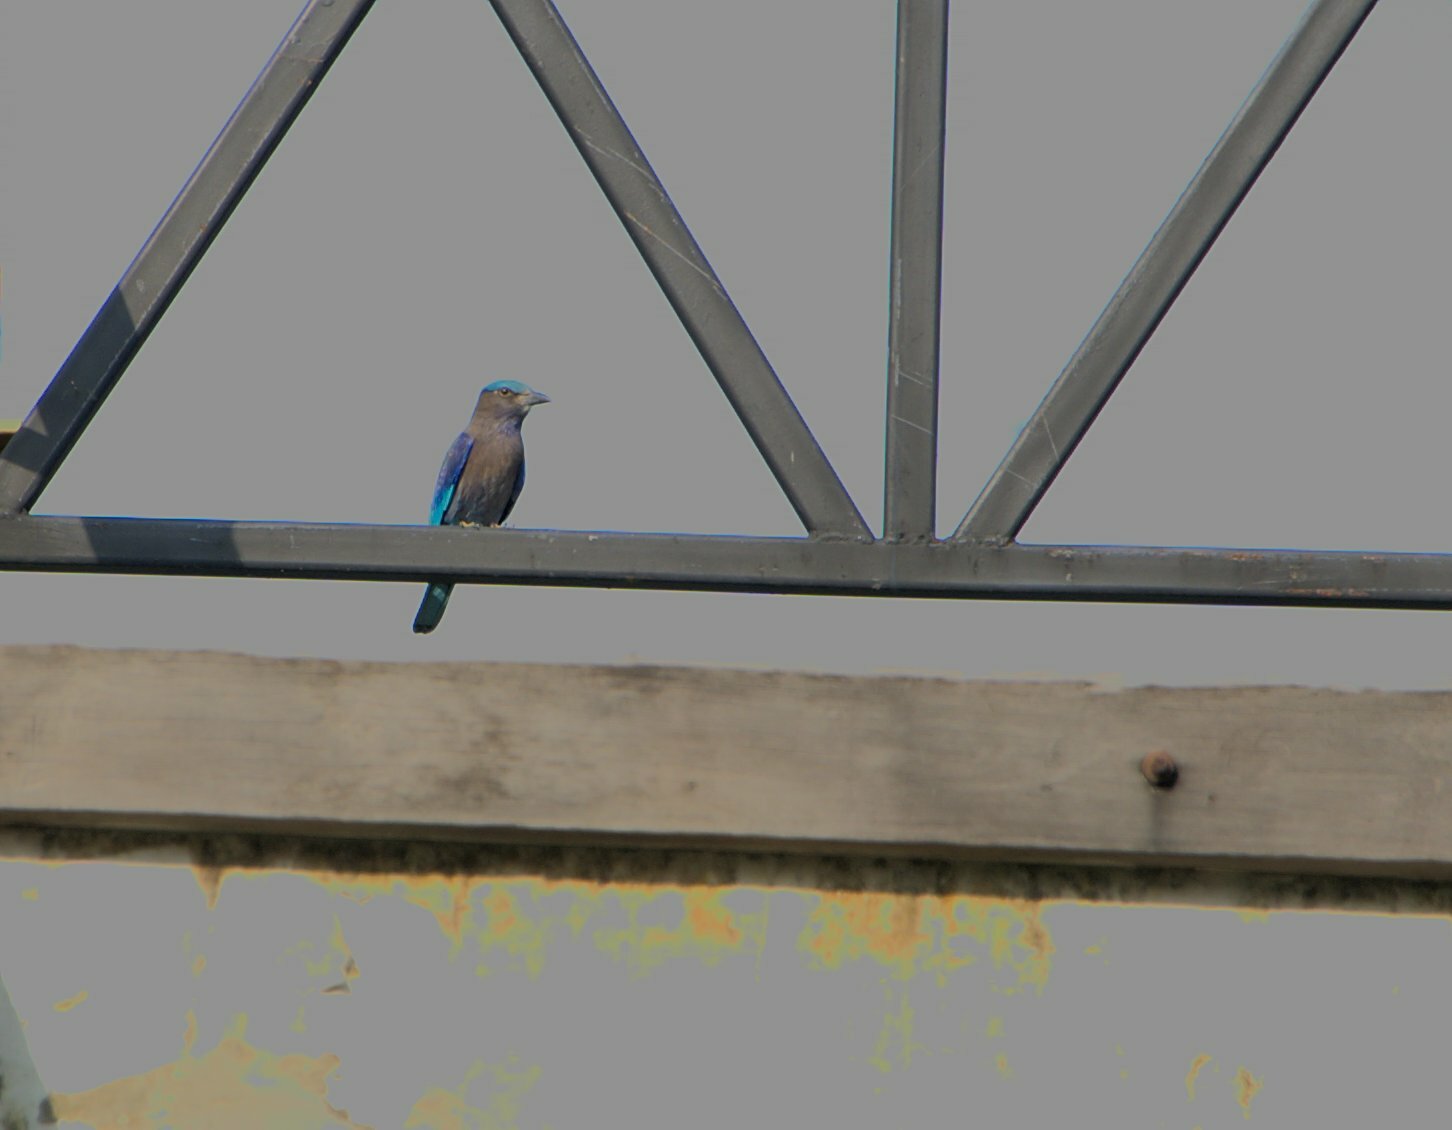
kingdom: Animalia
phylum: Chordata
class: Aves
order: Coraciiformes
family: Coraciidae
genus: Coracias
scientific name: Coracias affinis
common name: Indochinese roller
